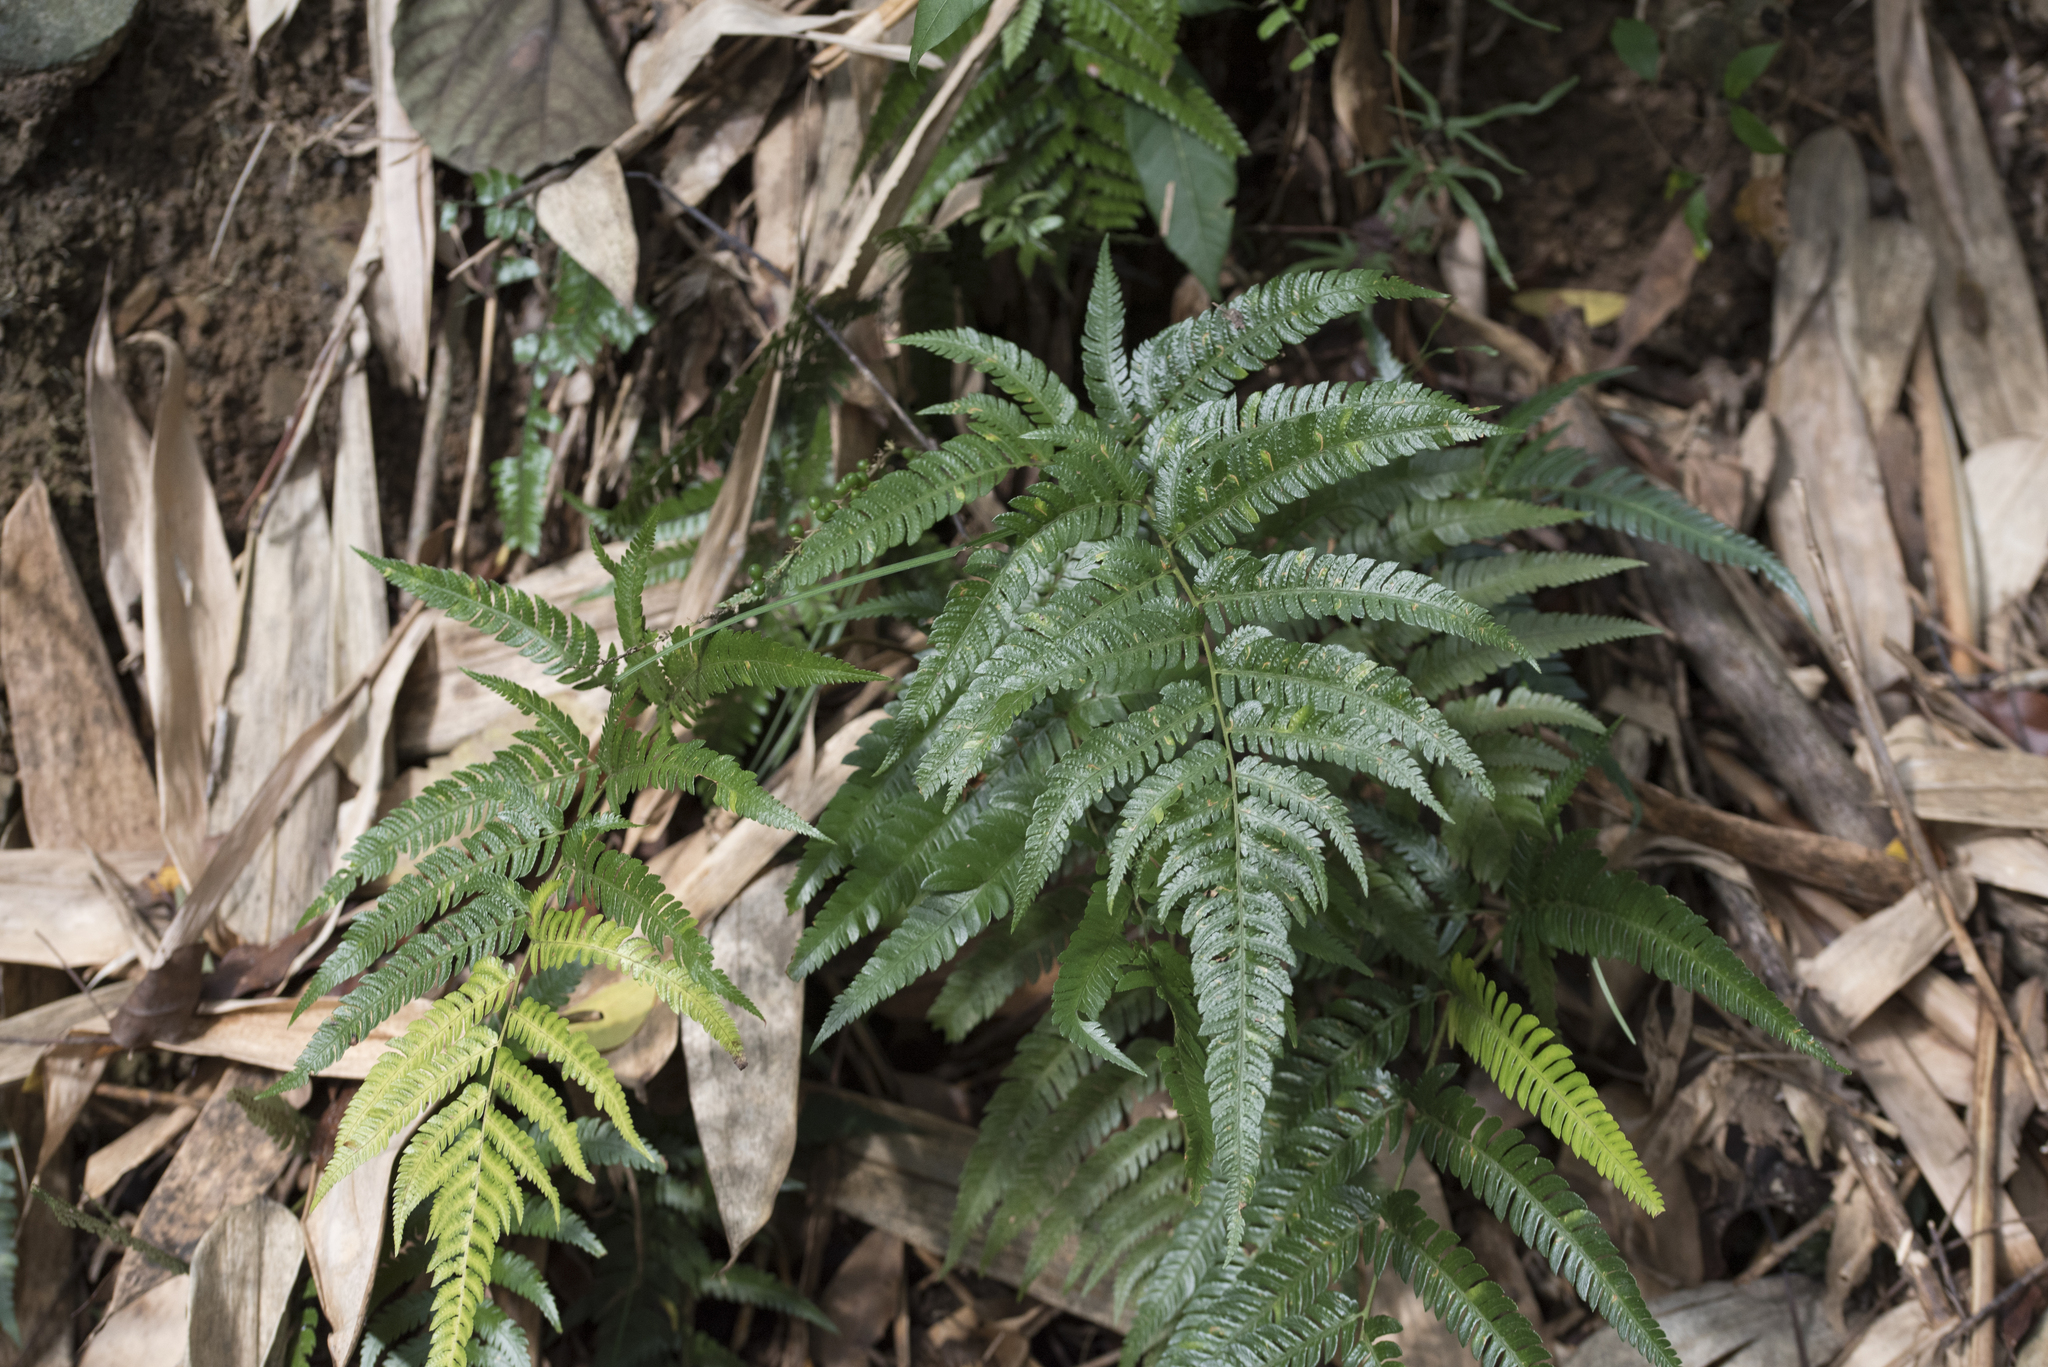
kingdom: Plantae
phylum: Tracheophyta
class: Polypodiopsida
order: Polypodiales
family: Dryopteridaceae
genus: Dryopteris
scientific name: Dryopteris varia
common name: Japanese holly fern
